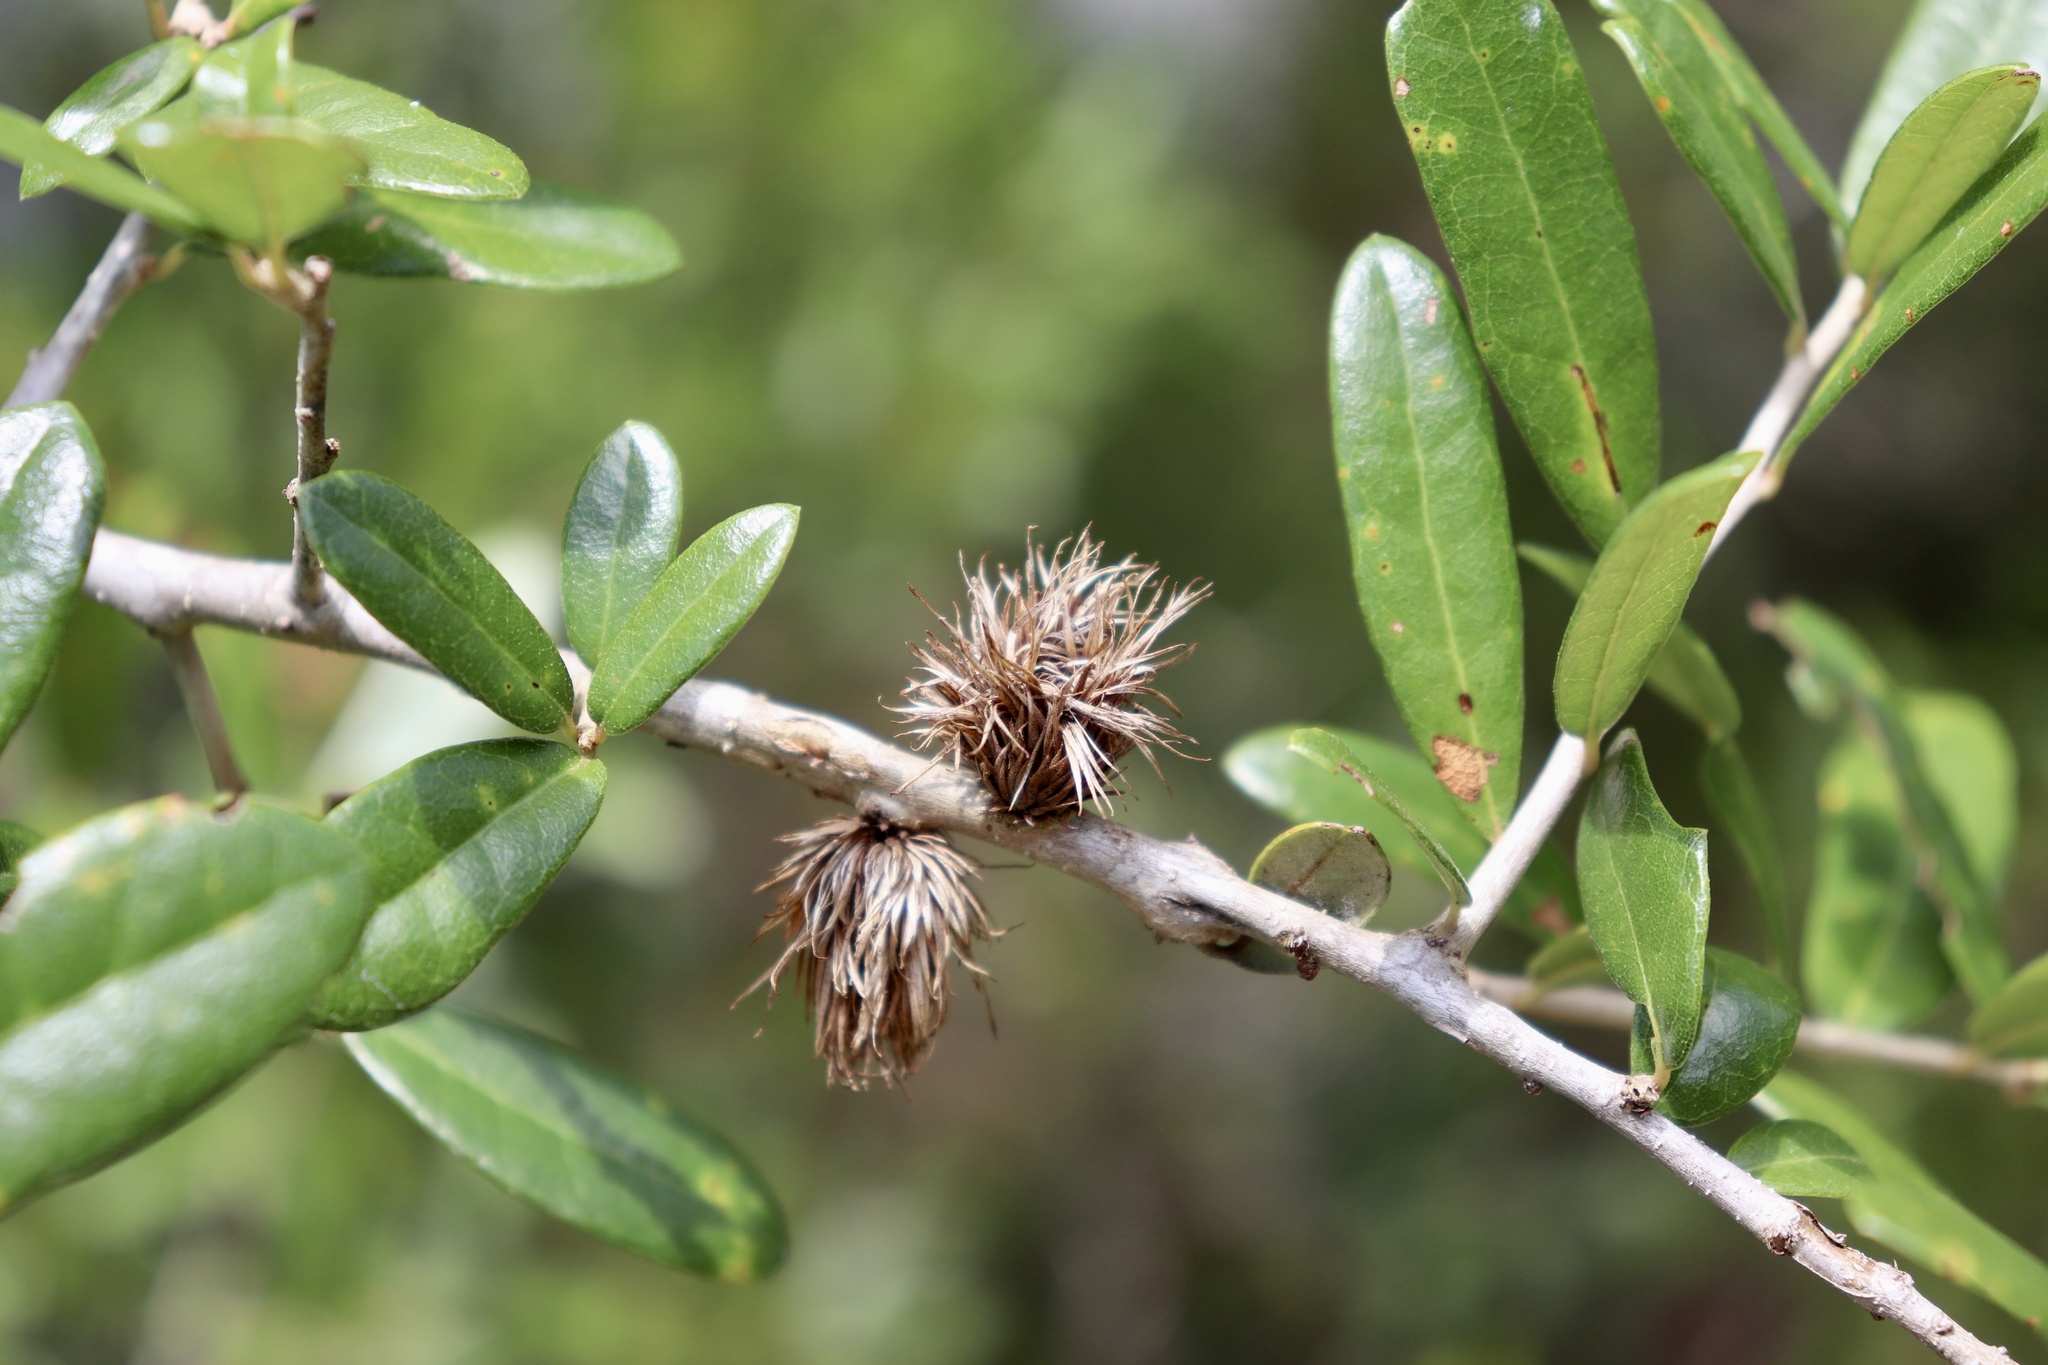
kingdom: Animalia
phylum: Arthropoda
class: Insecta
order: Hymenoptera
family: Cynipidae
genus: Andricus
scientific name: Andricus quercusfoliatus
